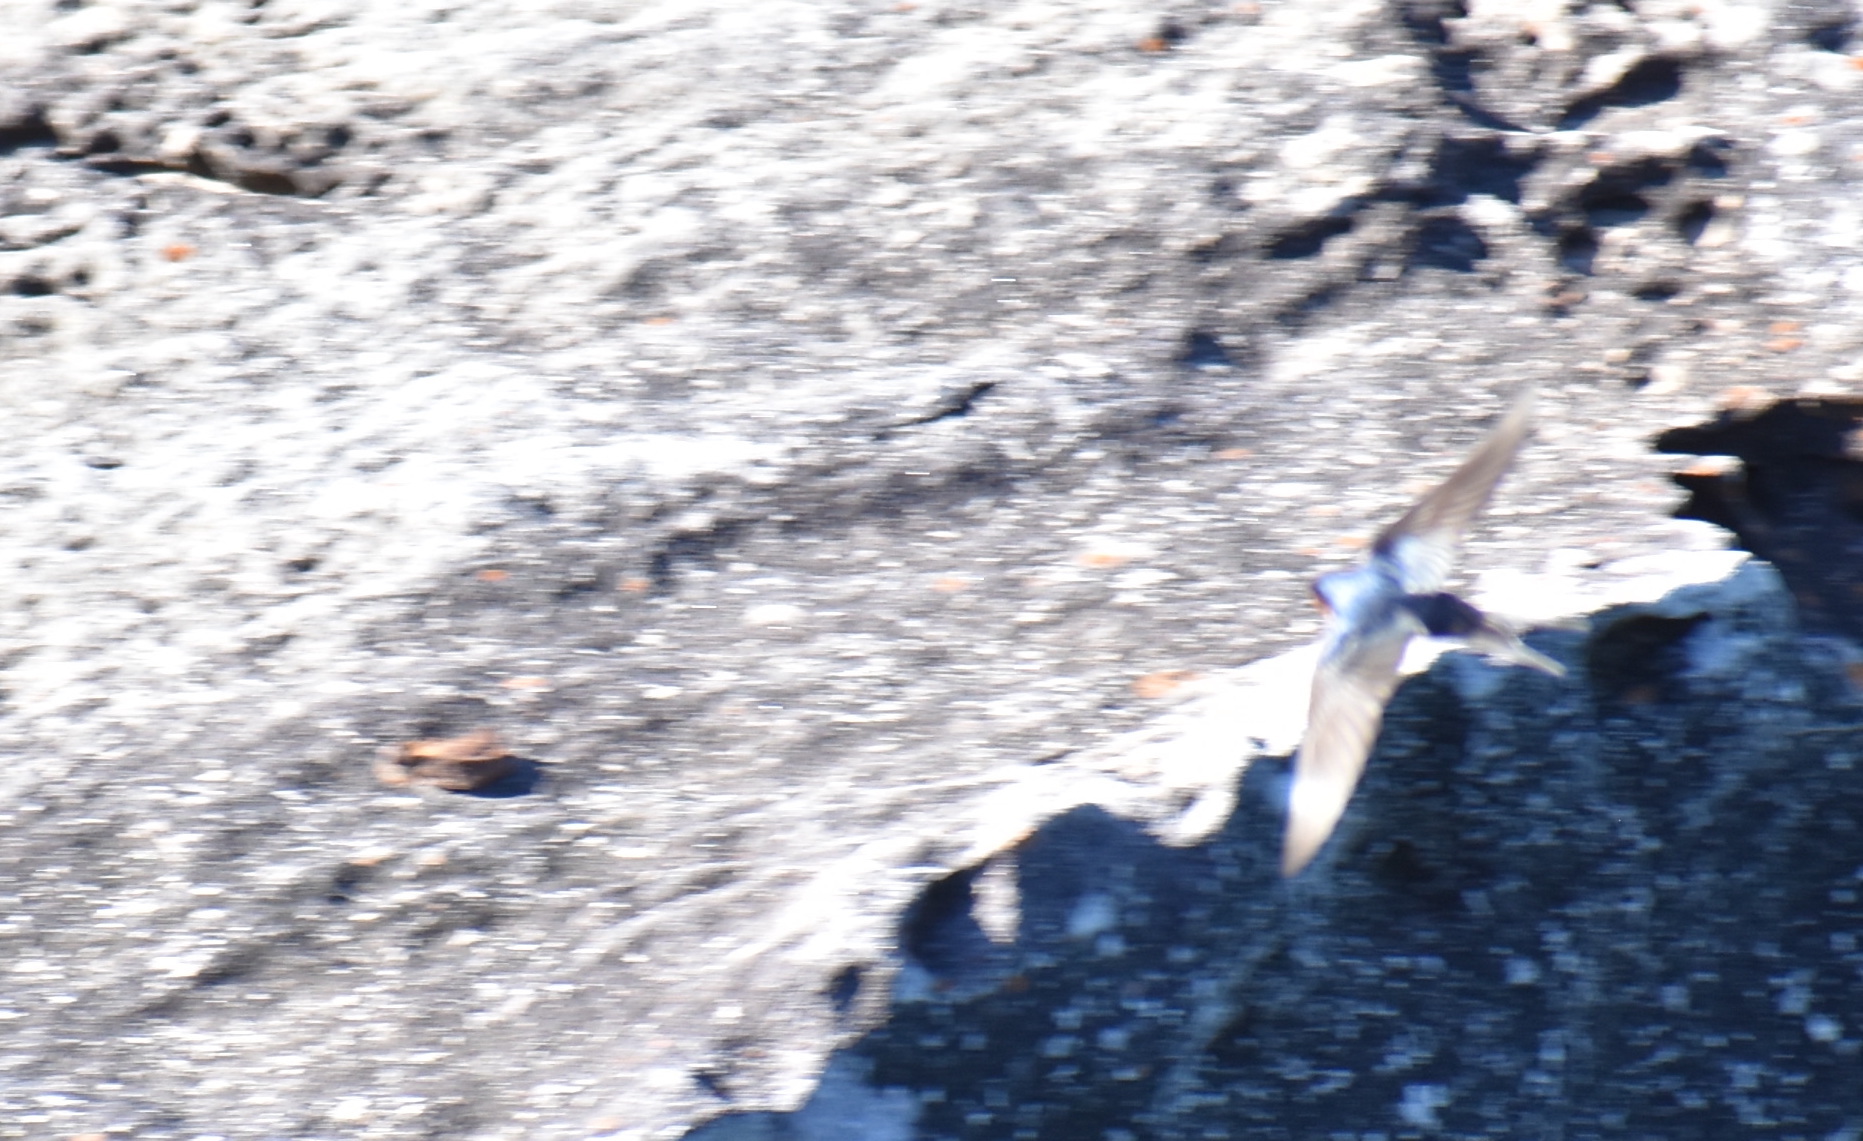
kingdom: Animalia
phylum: Chordata
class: Aves
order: Passeriformes
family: Hirundinidae
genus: Hirundo
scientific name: Hirundo neoxena
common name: Welcome swallow
